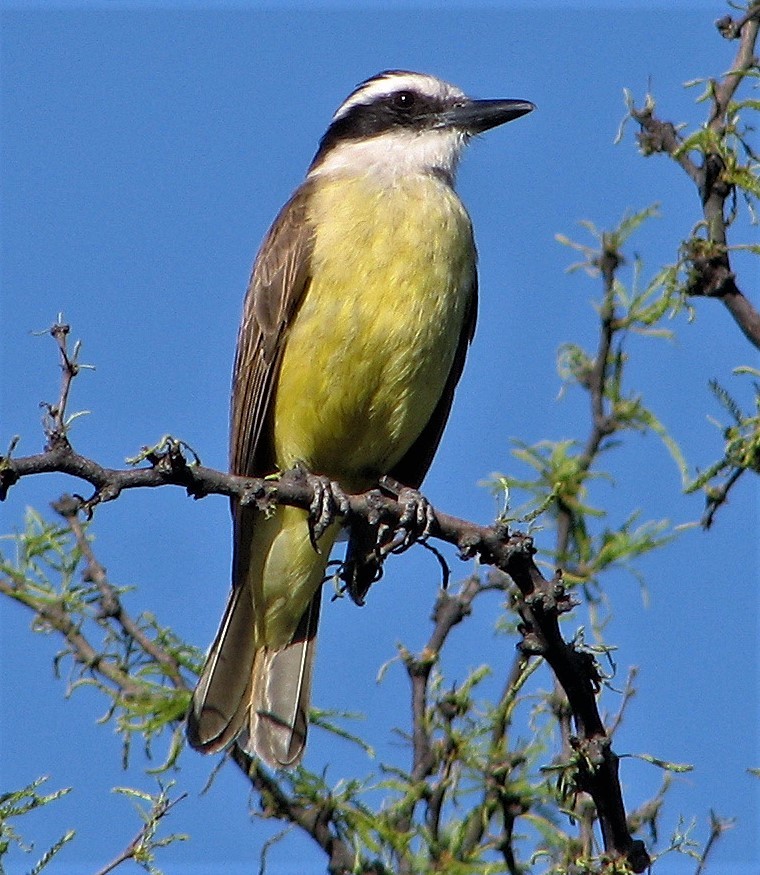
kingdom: Animalia
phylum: Chordata
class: Aves
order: Passeriformes
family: Tyrannidae
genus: Pitangus
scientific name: Pitangus sulphuratus
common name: Great kiskadee
